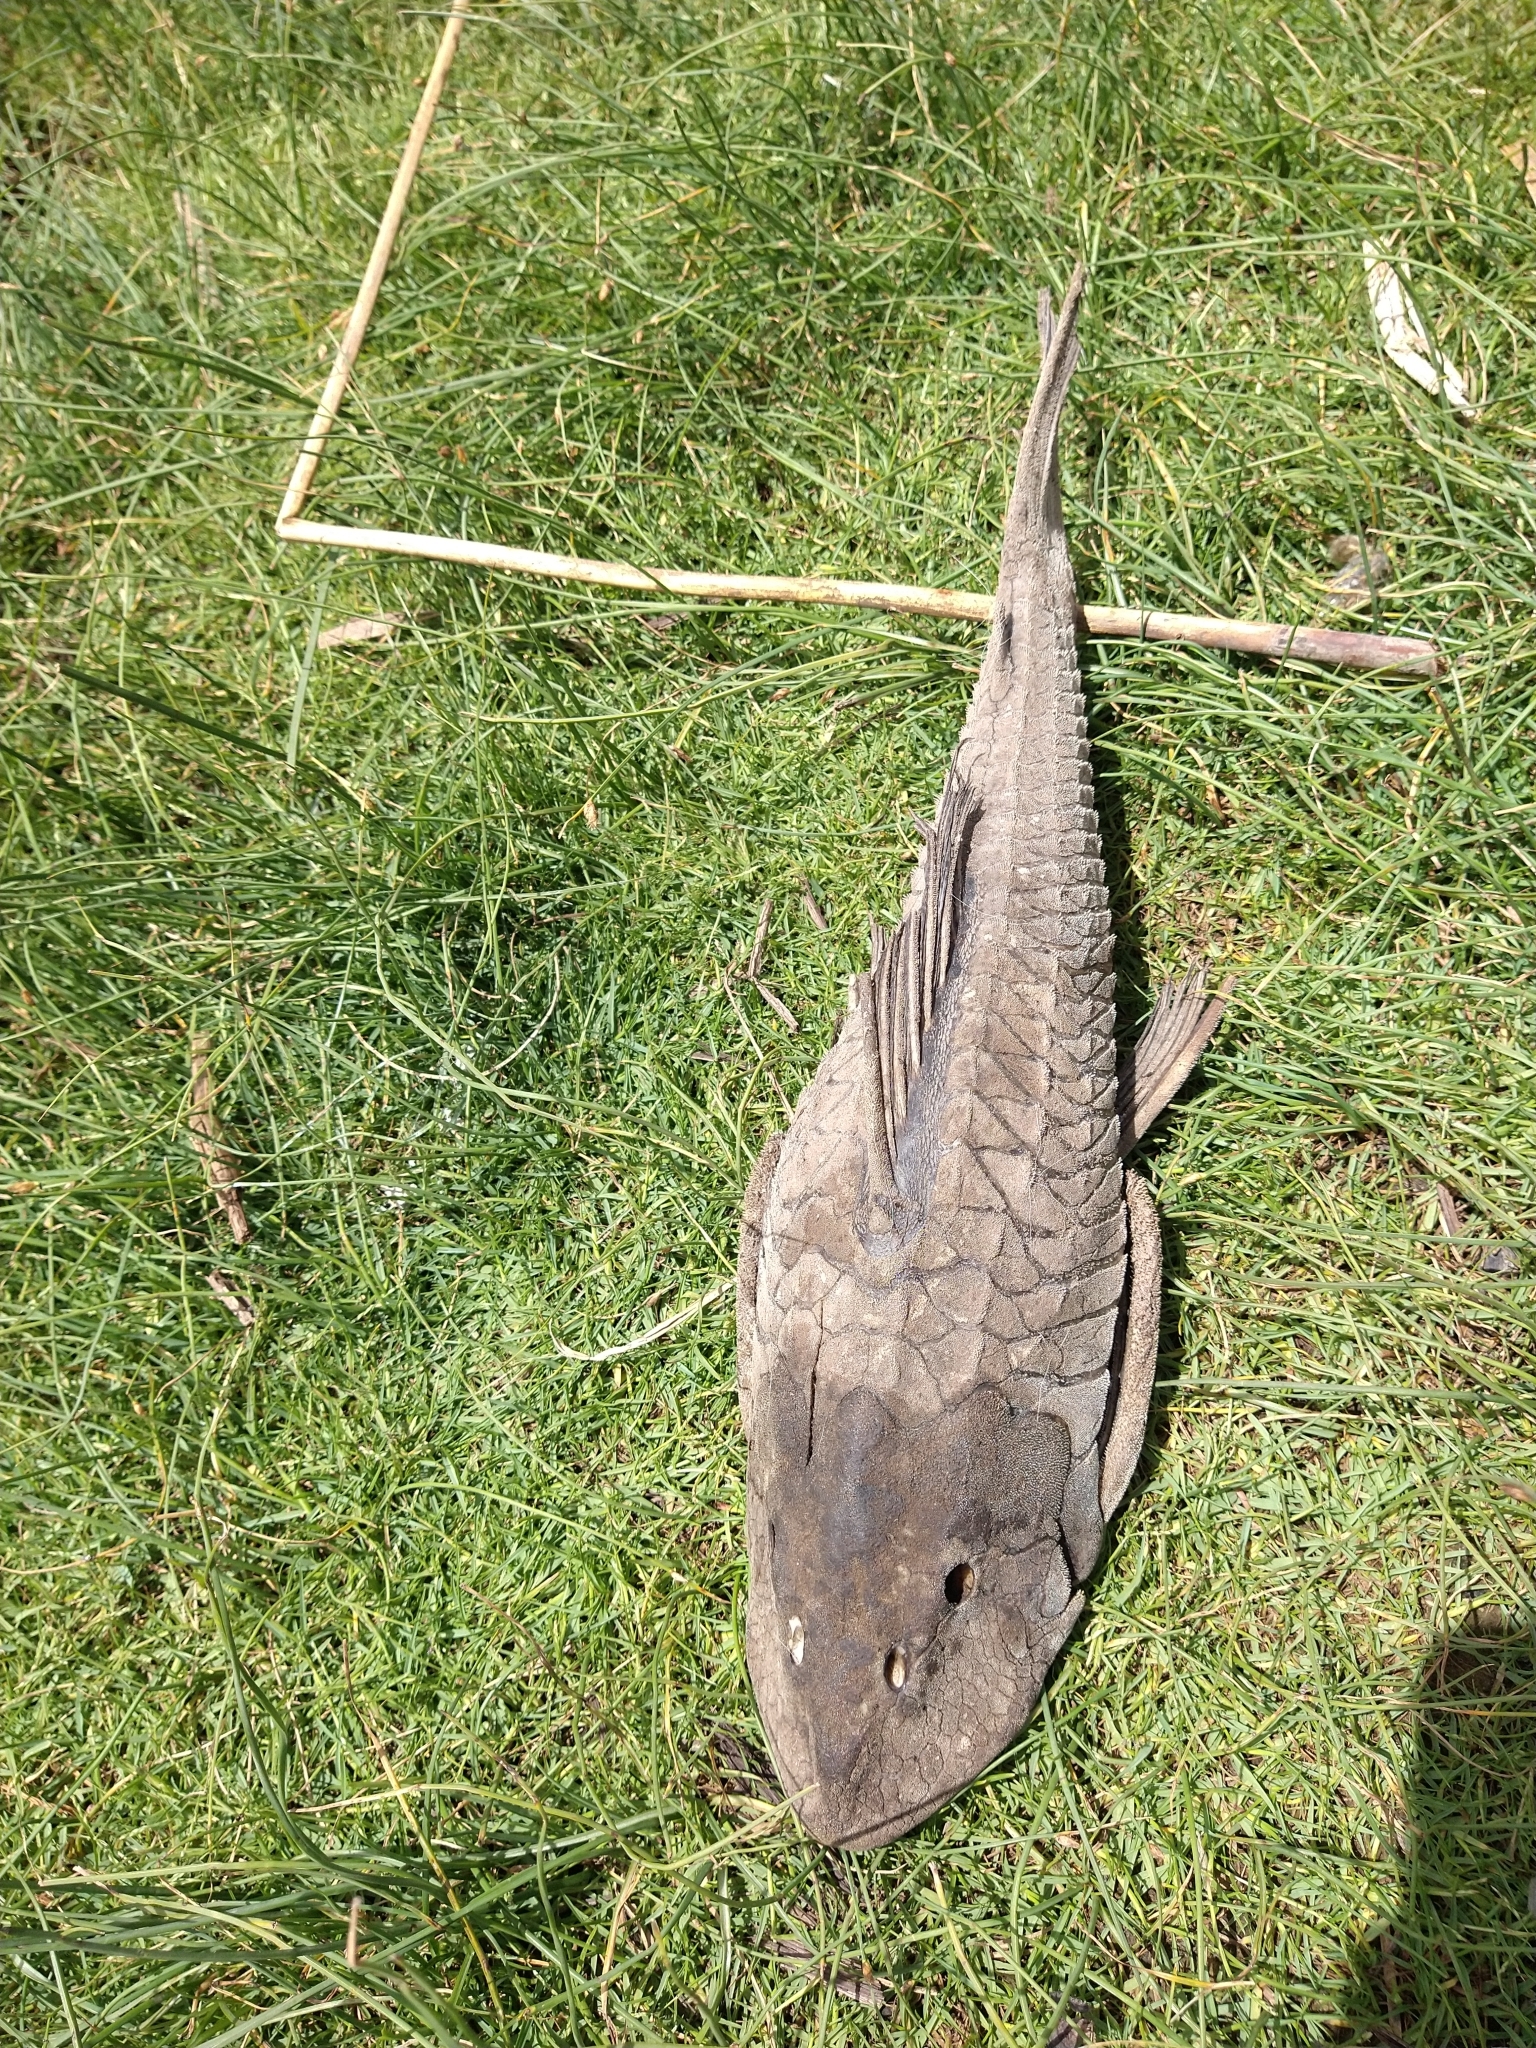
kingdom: Animalia
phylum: Chordata
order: Siluriformes
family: Loricariidae
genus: Hypostomus
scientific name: Hypostomus
